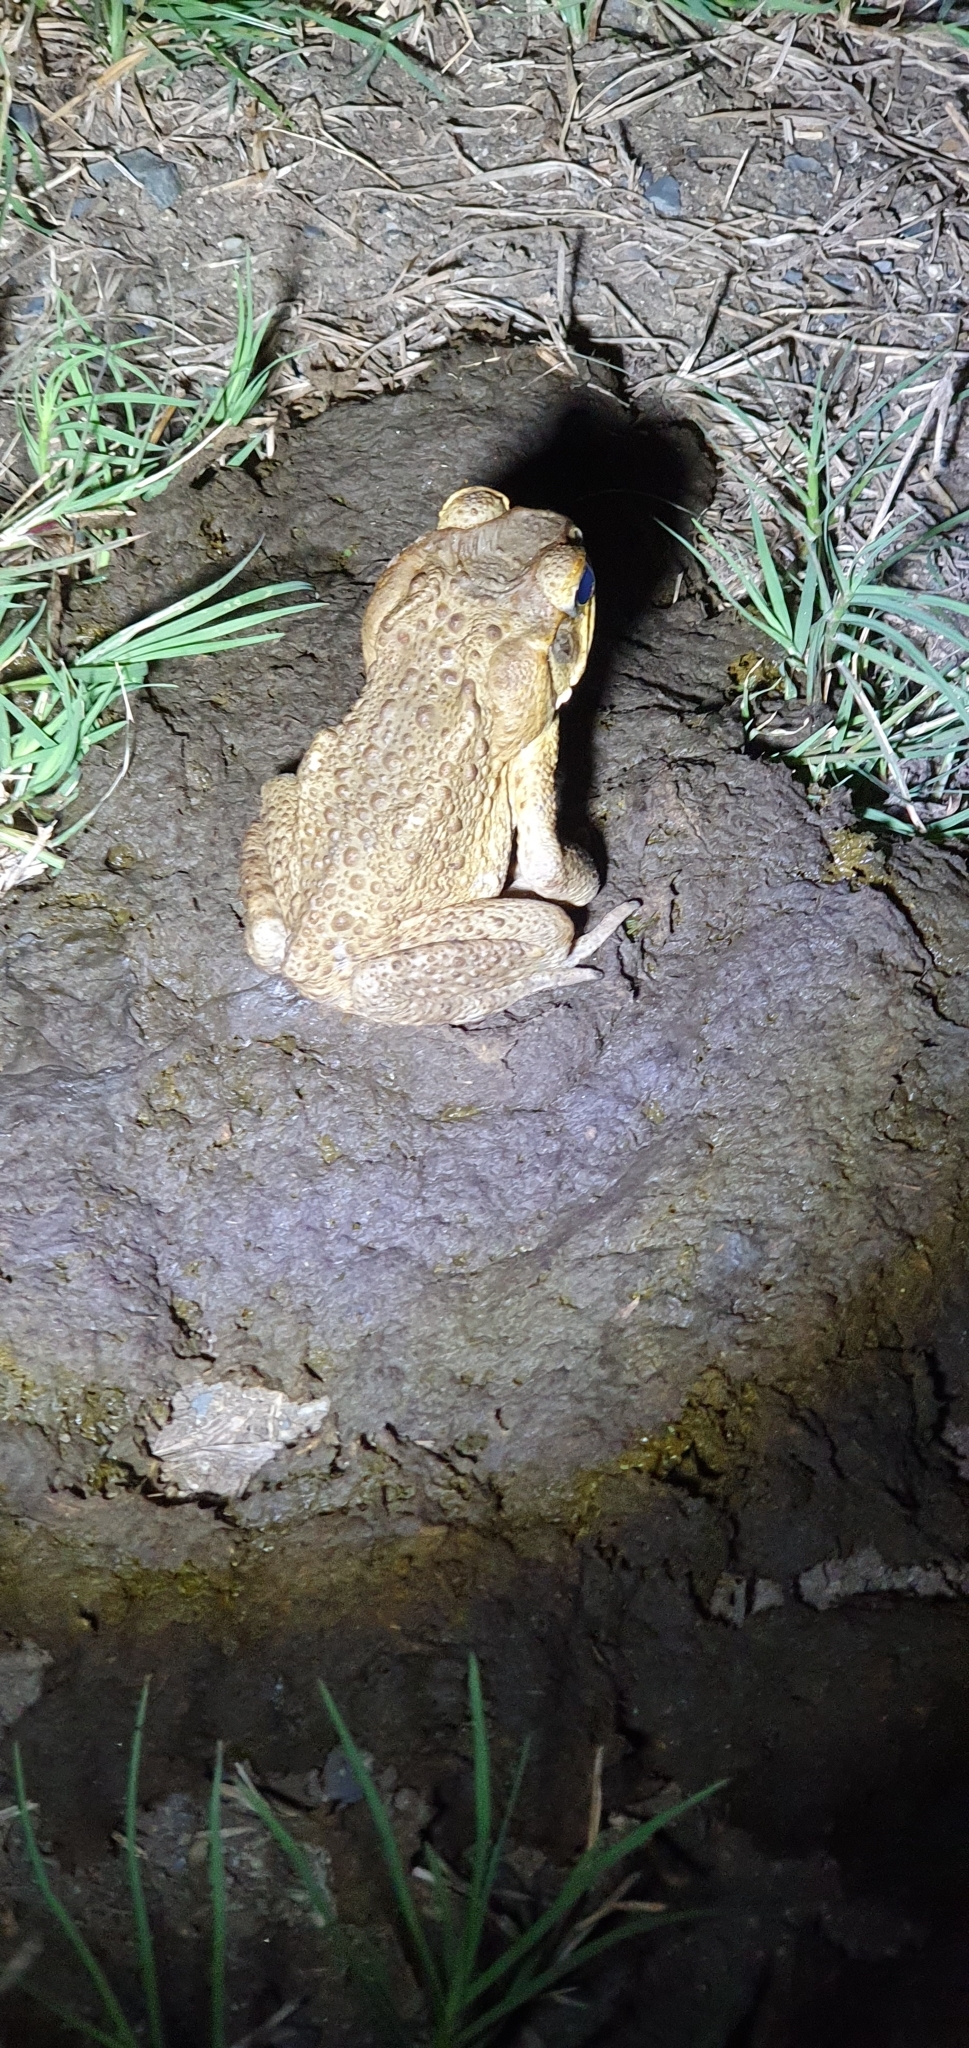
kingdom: Animalia
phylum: Chordata
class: Amphibia
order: Anura
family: Bufonidae
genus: Rhinella
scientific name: Rhinella marina
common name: Cane toad
